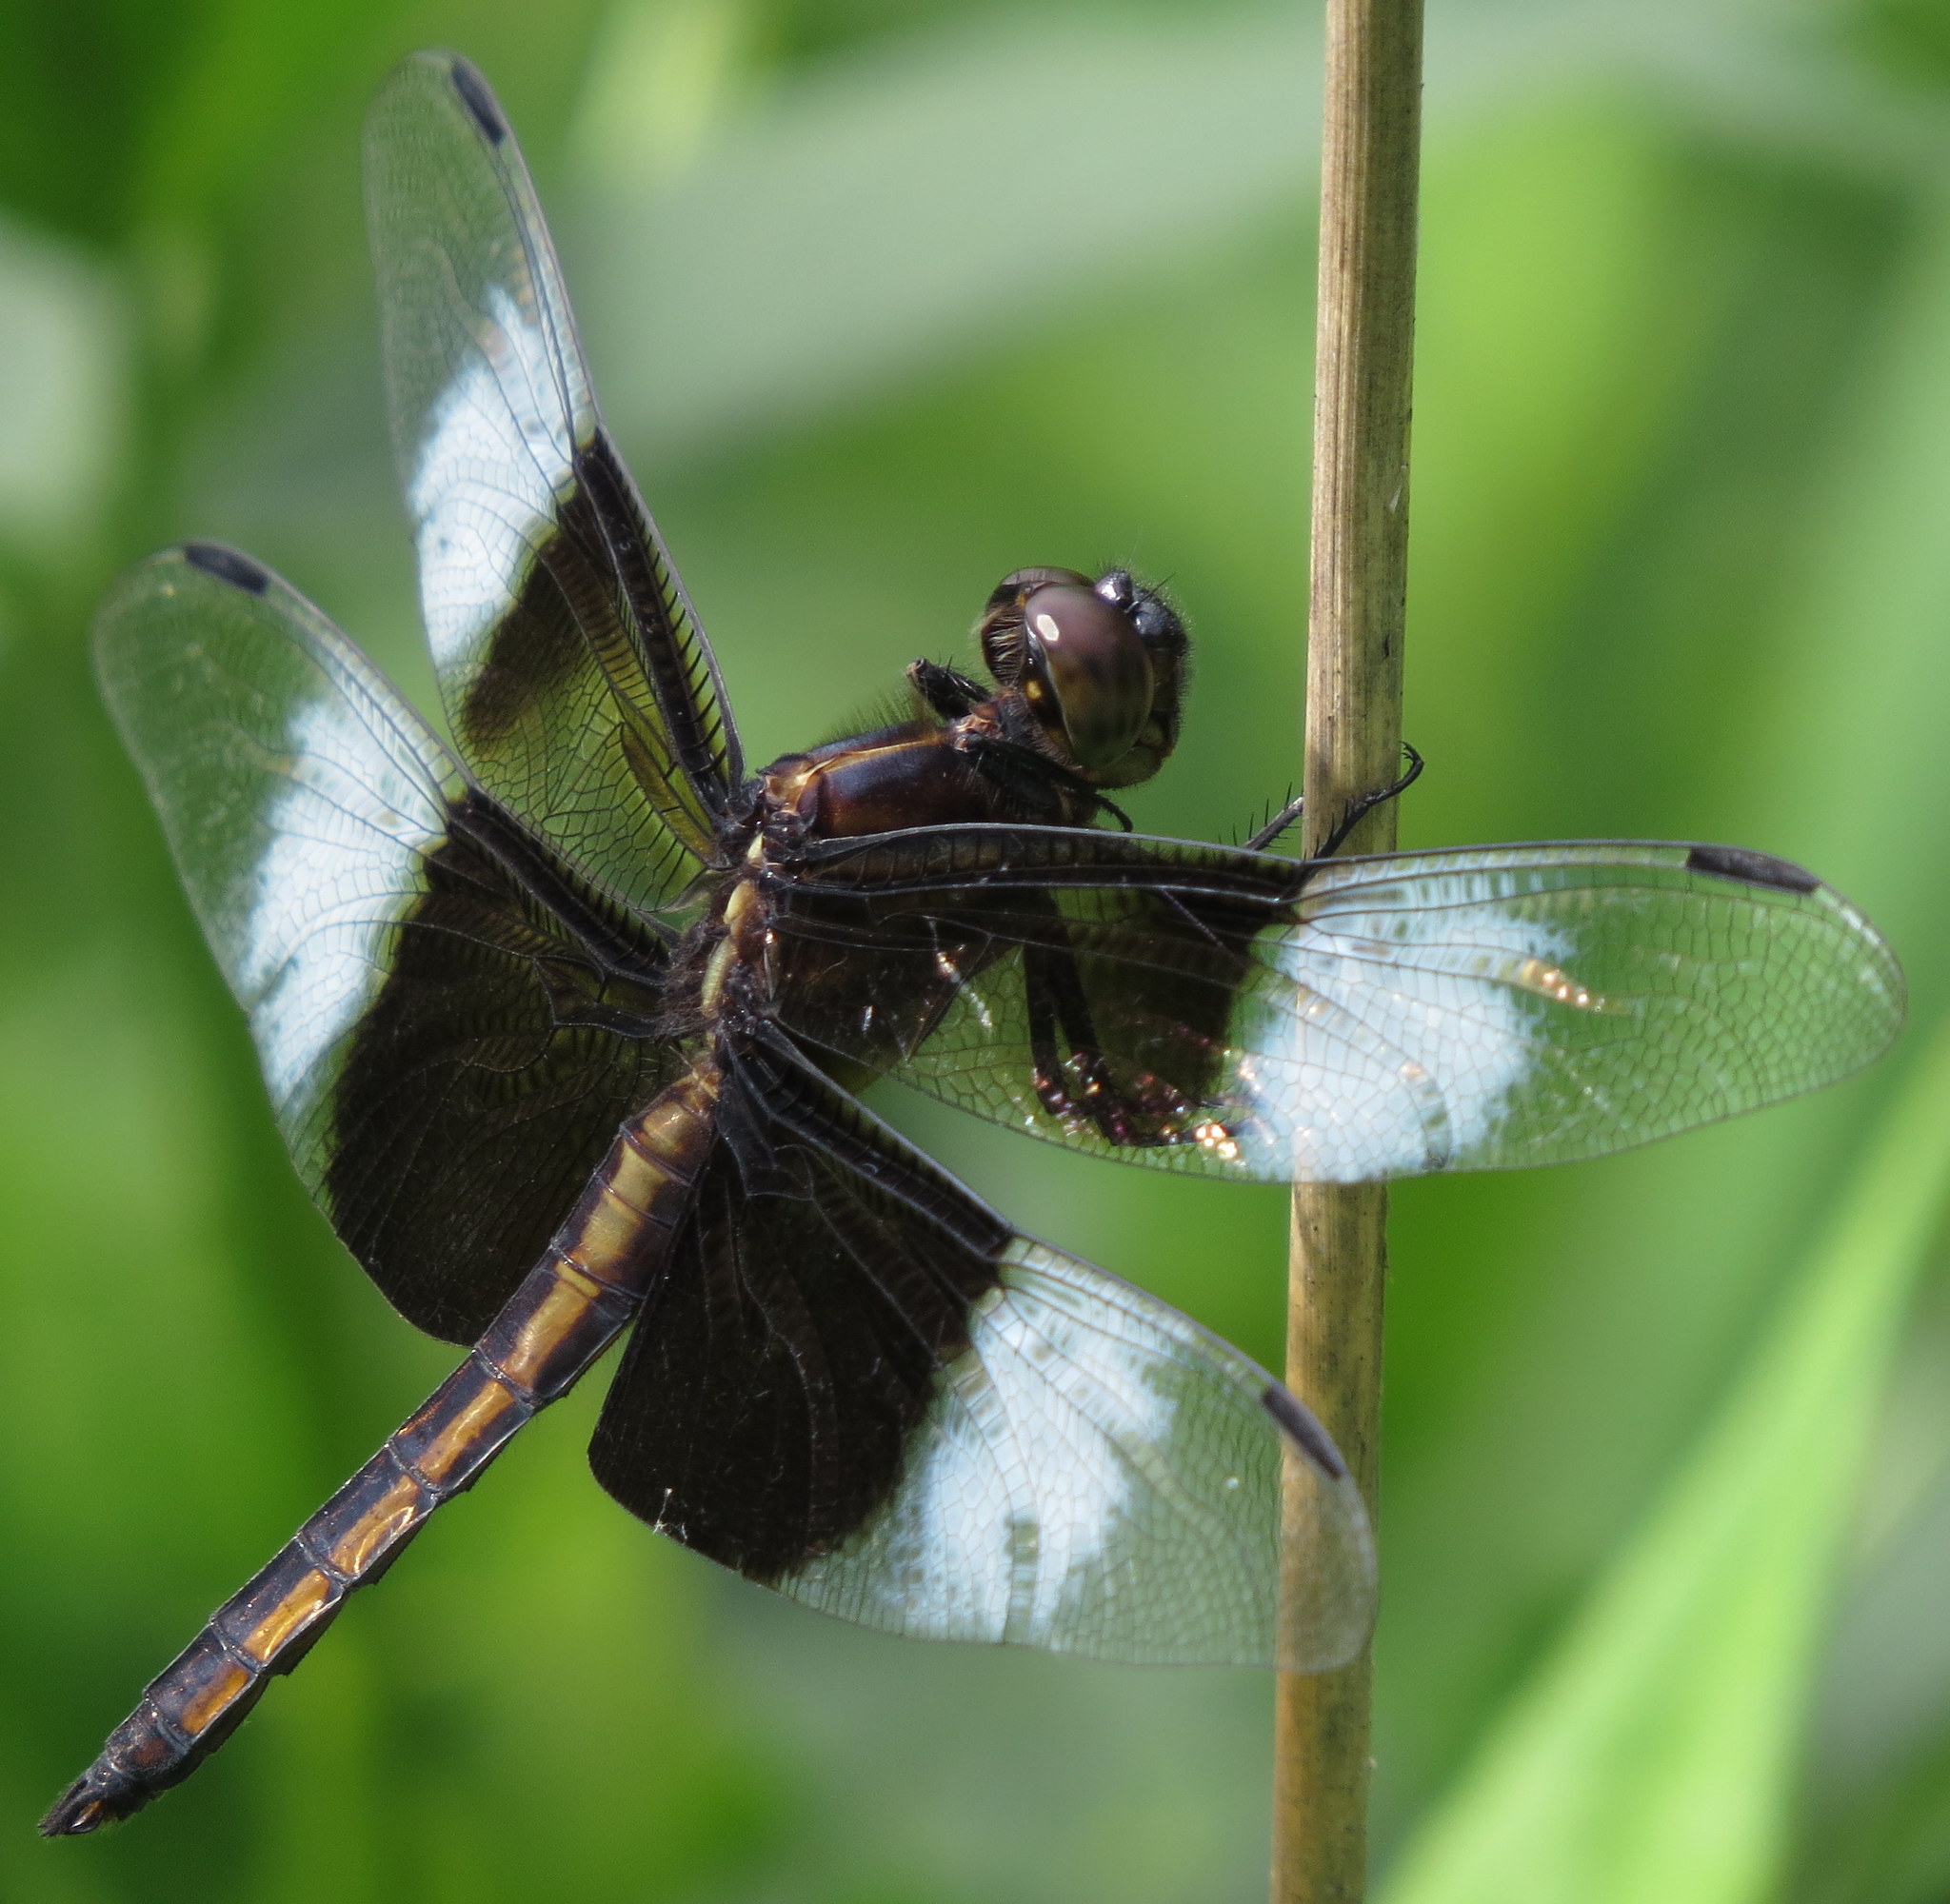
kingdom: Animalia
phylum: Arthropoda
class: Insecta
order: Odonata
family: Libellulidae
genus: Libellula
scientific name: Libellula luctuosa
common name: Widow skimmer
